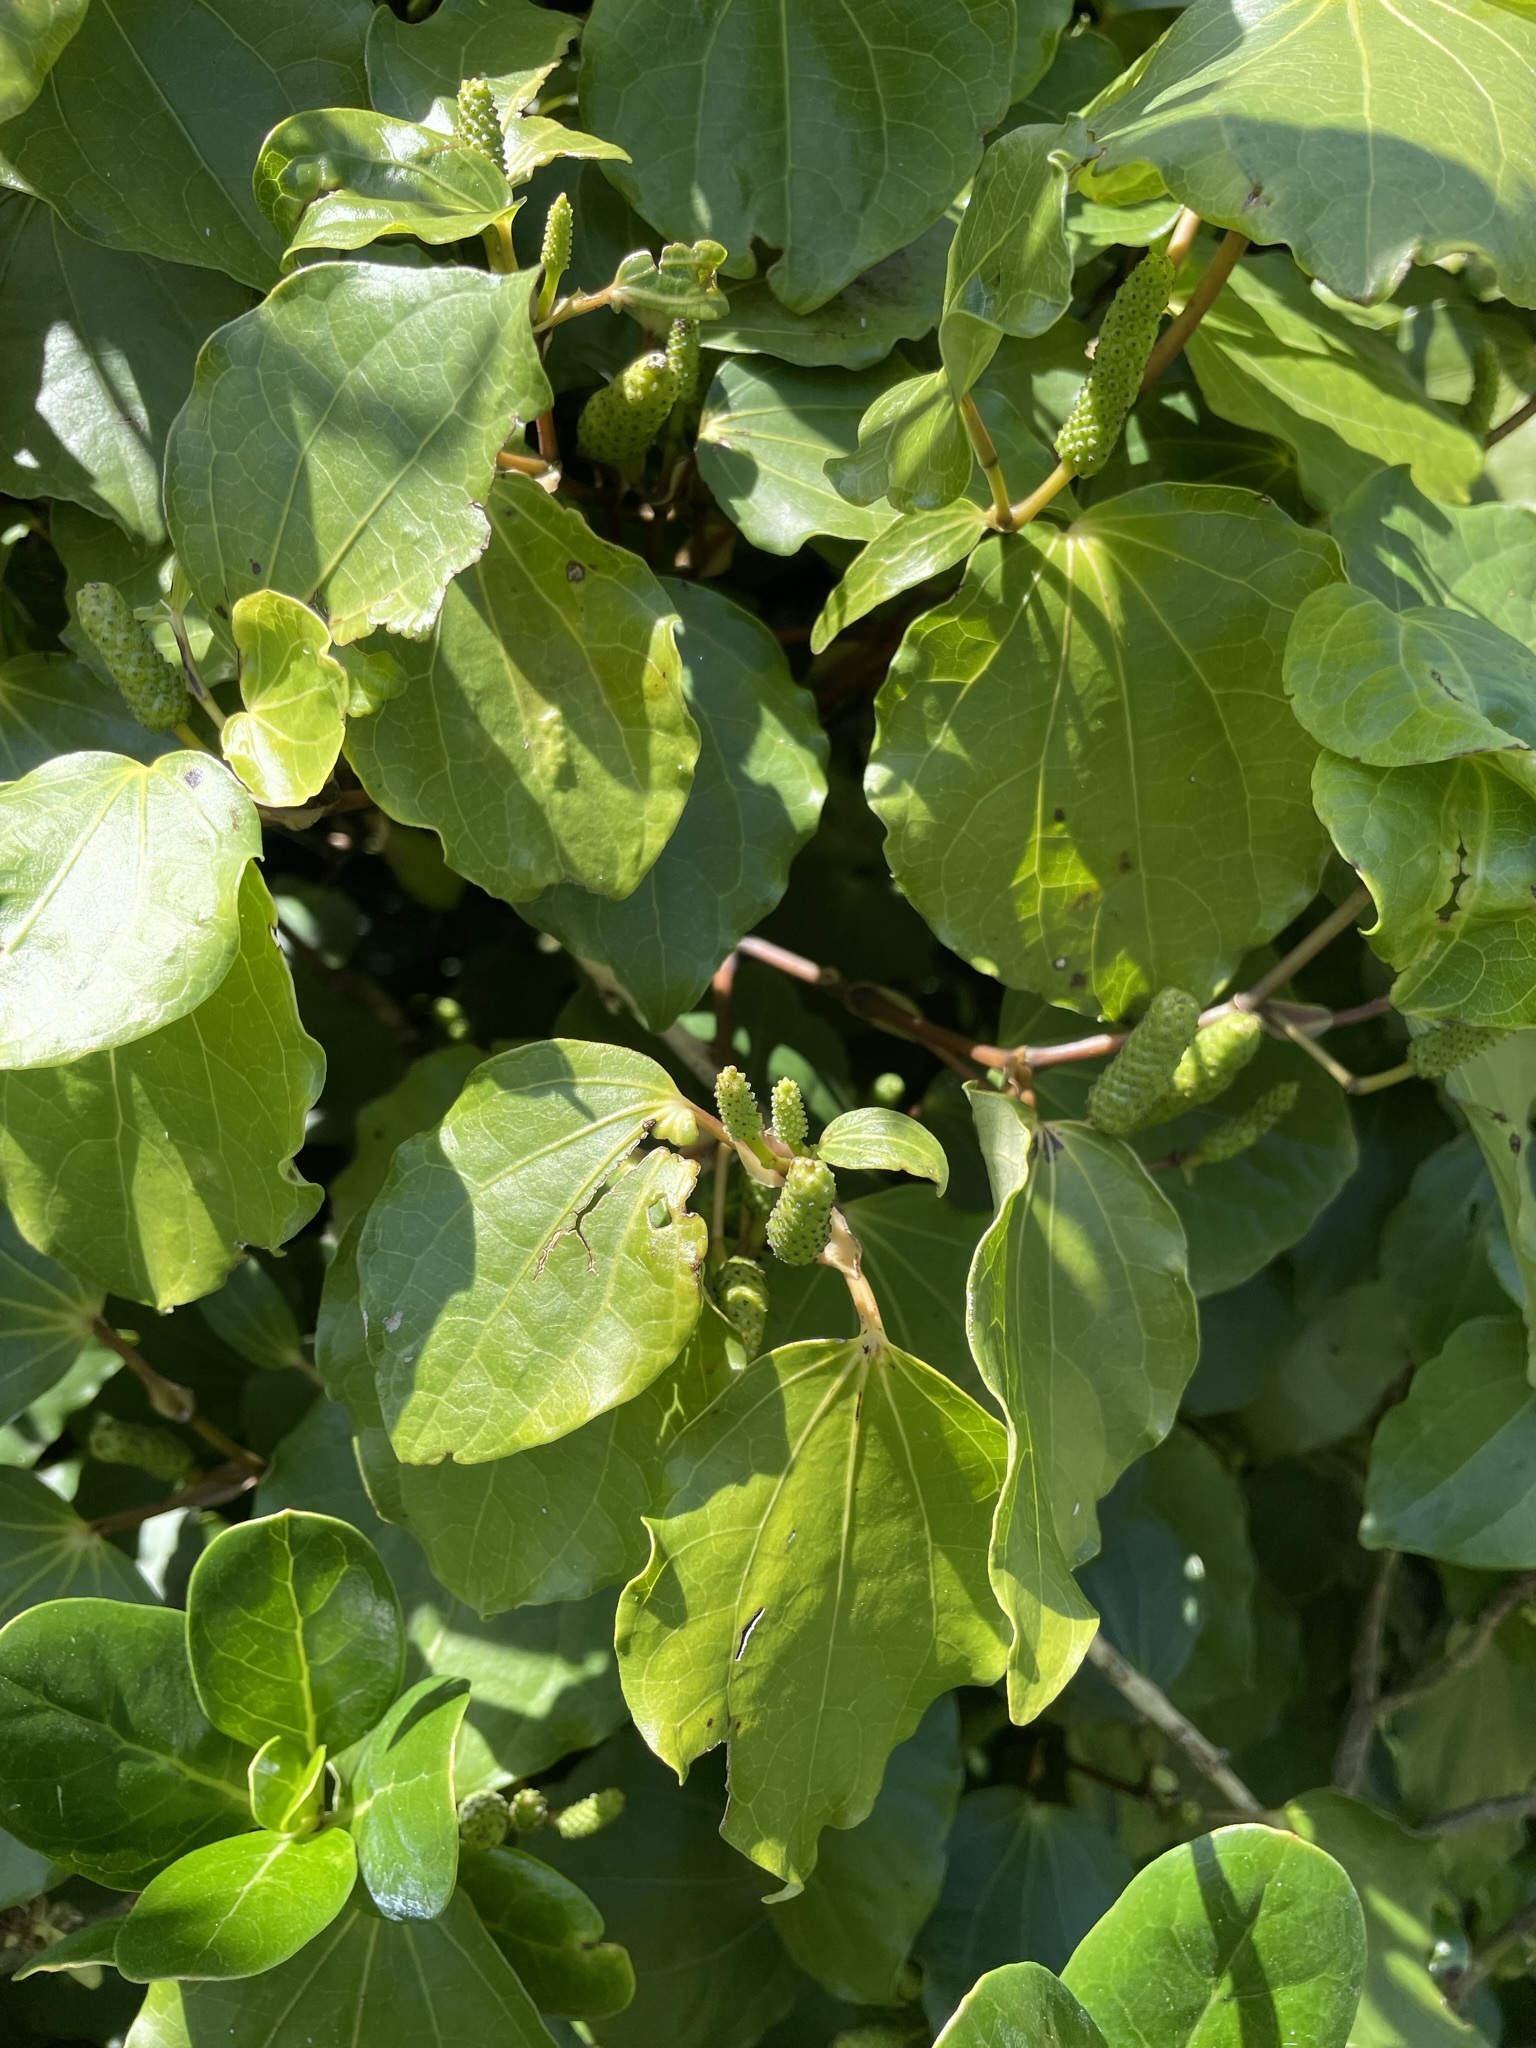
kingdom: Plantae
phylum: Tracheophyta
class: Magnoliopsida
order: Piperales
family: Piperaceae
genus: Macropiper
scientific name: Macropiper excelsum
